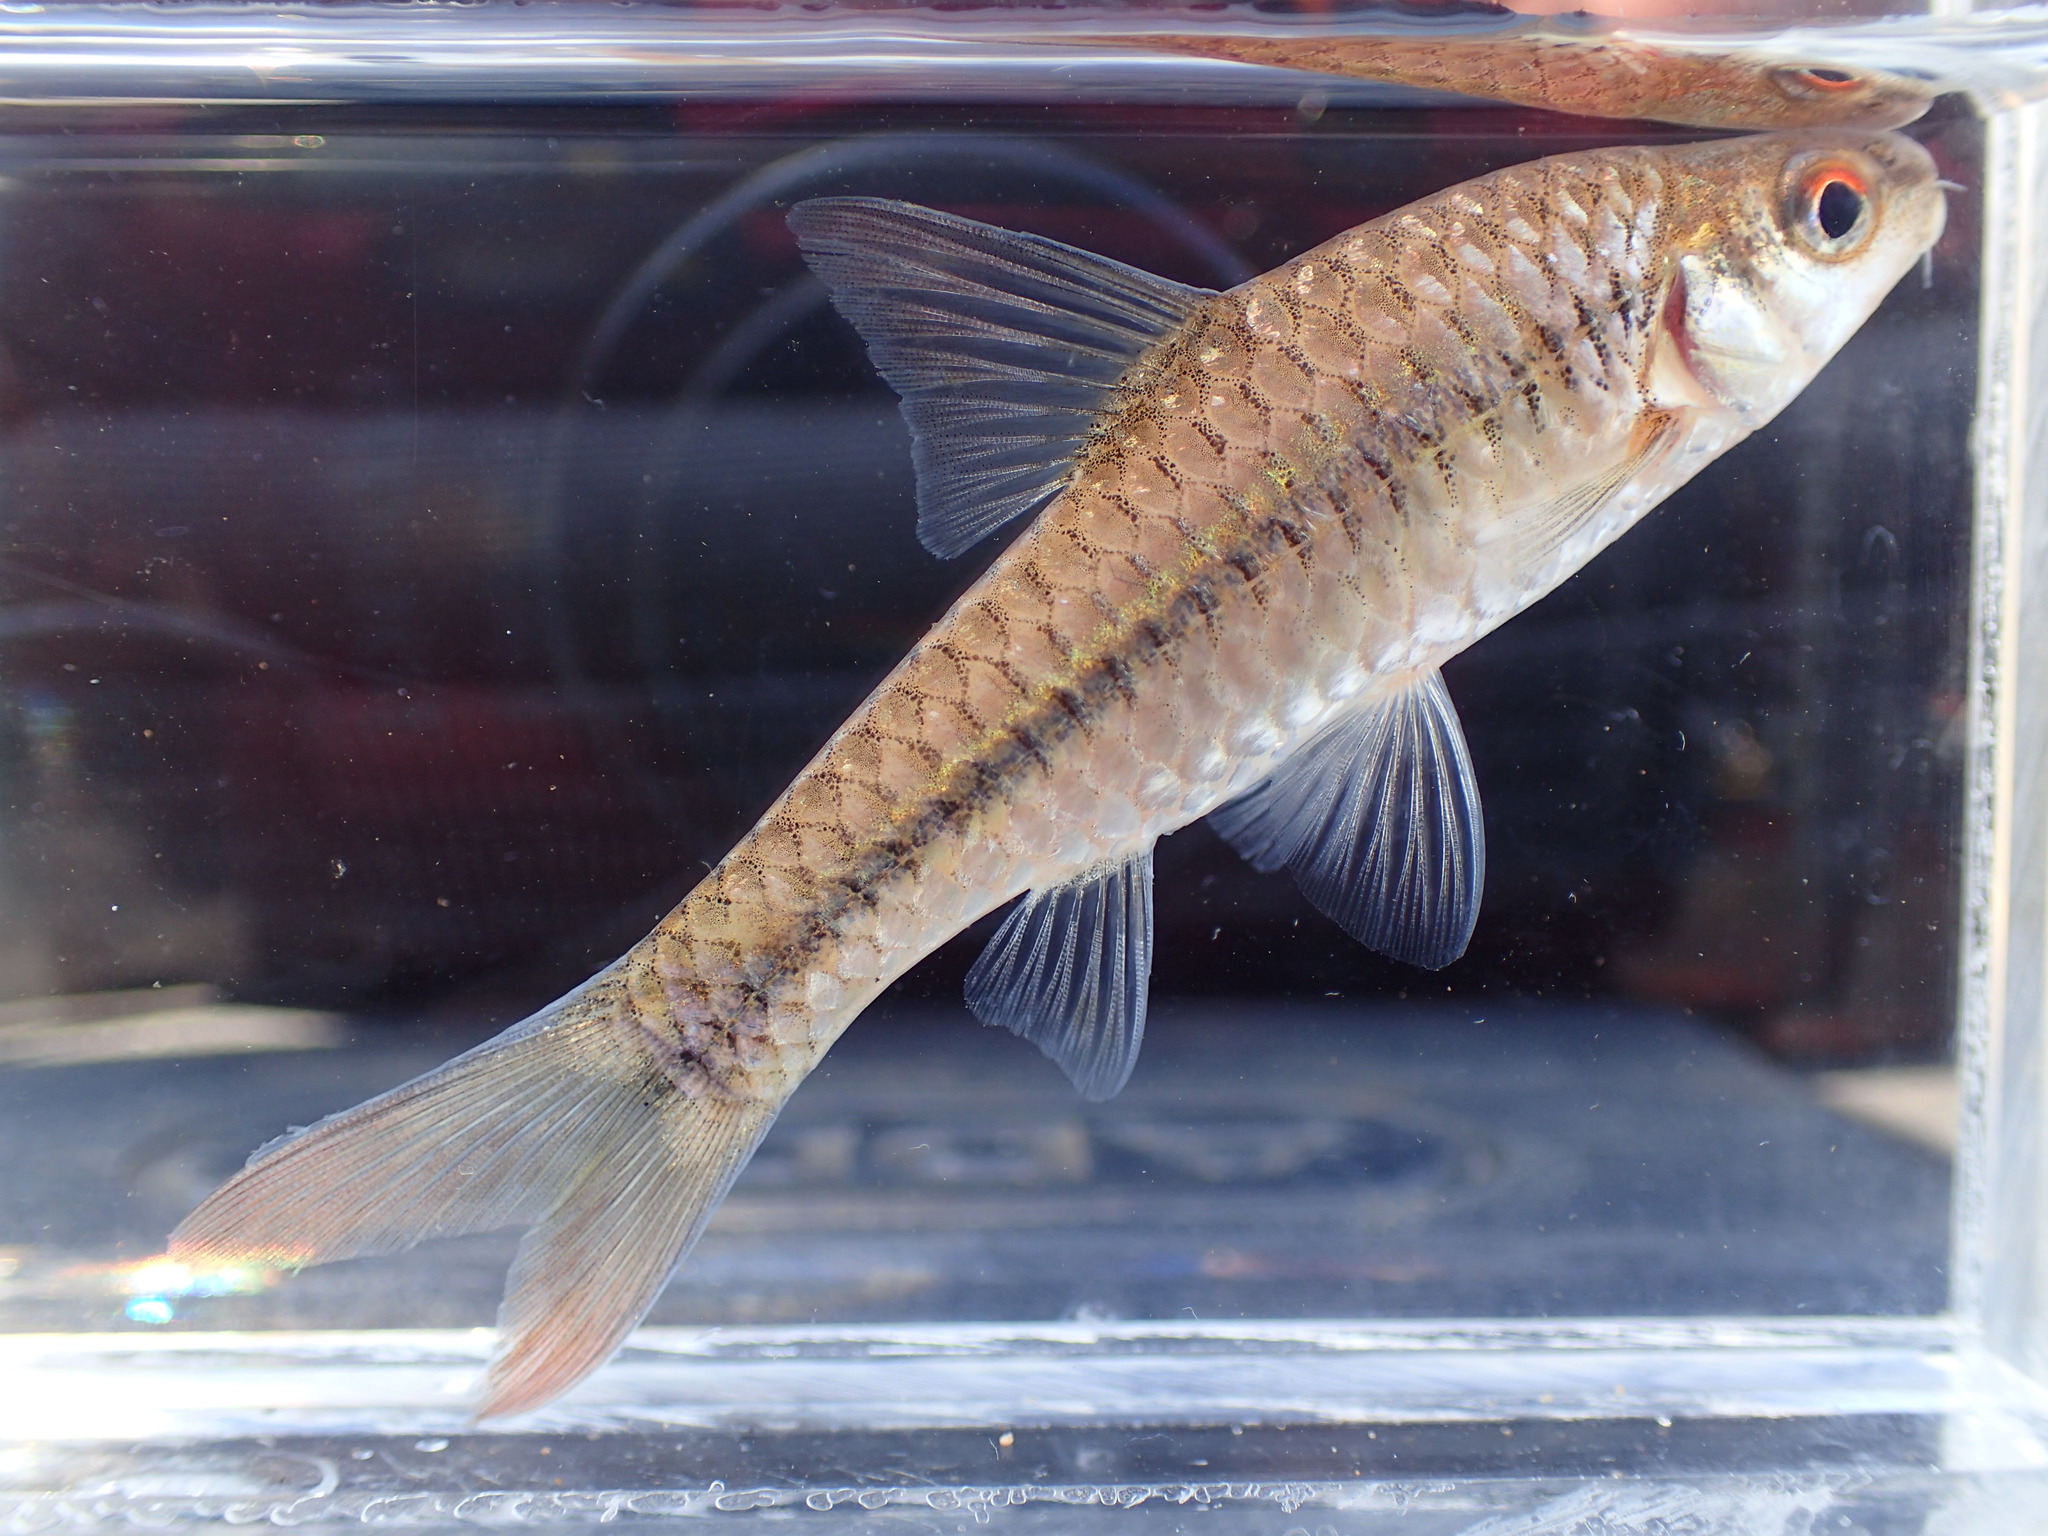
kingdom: Animalia
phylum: Chordata
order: Cypriniformes
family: Cyprinidae
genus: Enteromius
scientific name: Enteromius radiatus
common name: Beira barb
